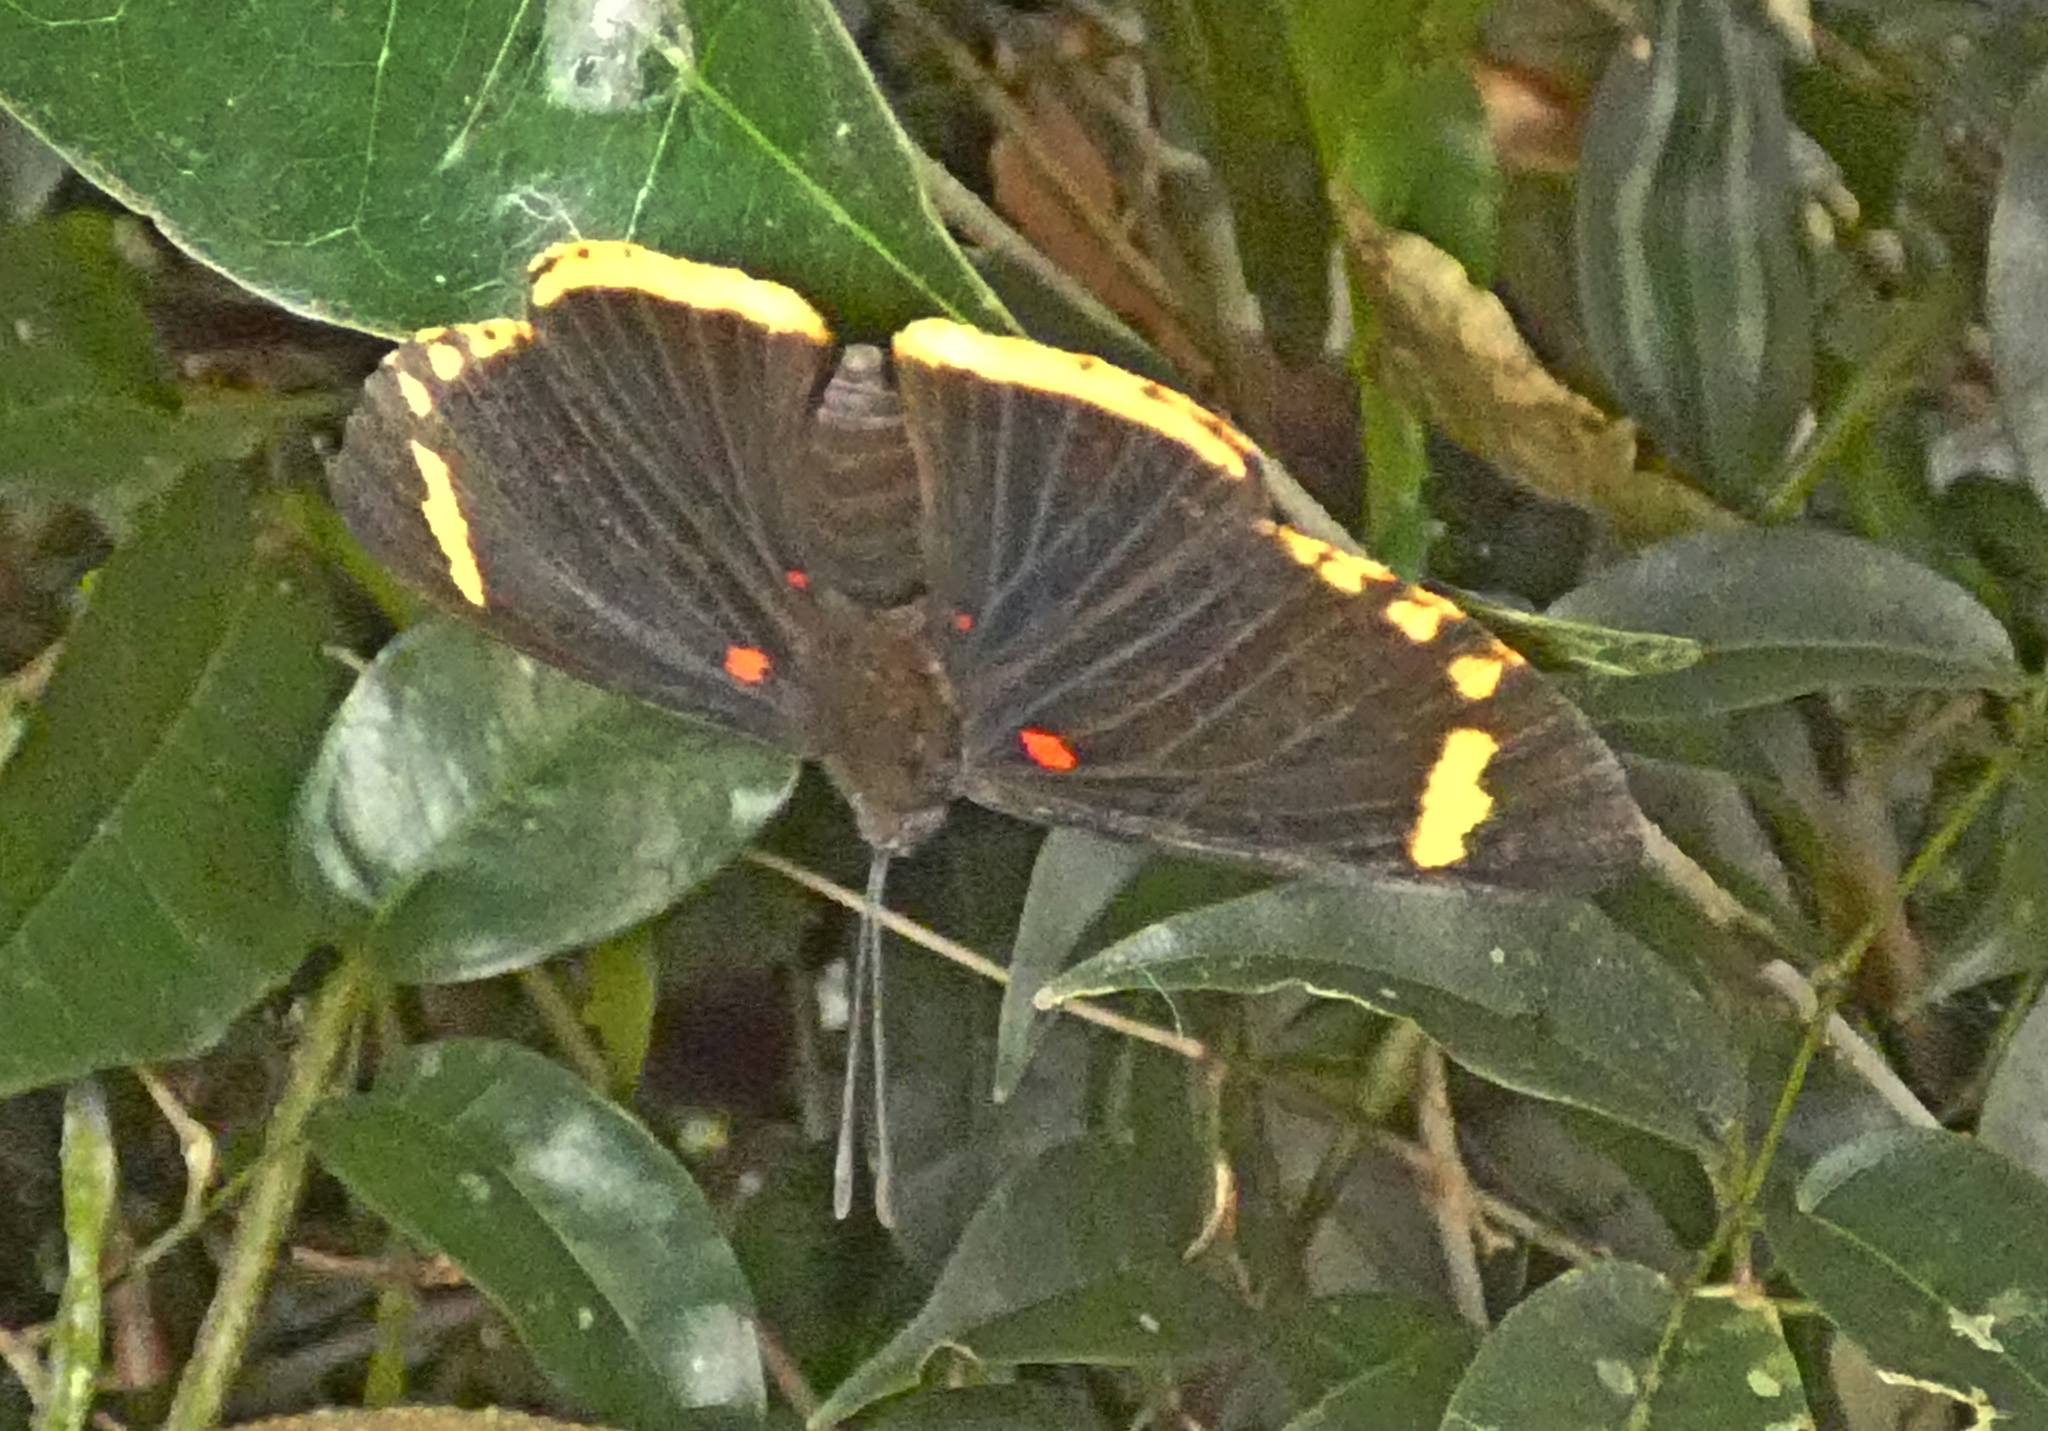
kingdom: Animalia
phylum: Arthropoda
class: Insecta
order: Lepidoptera
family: Lycaenidae
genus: Melanis
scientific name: Melanis xenia
